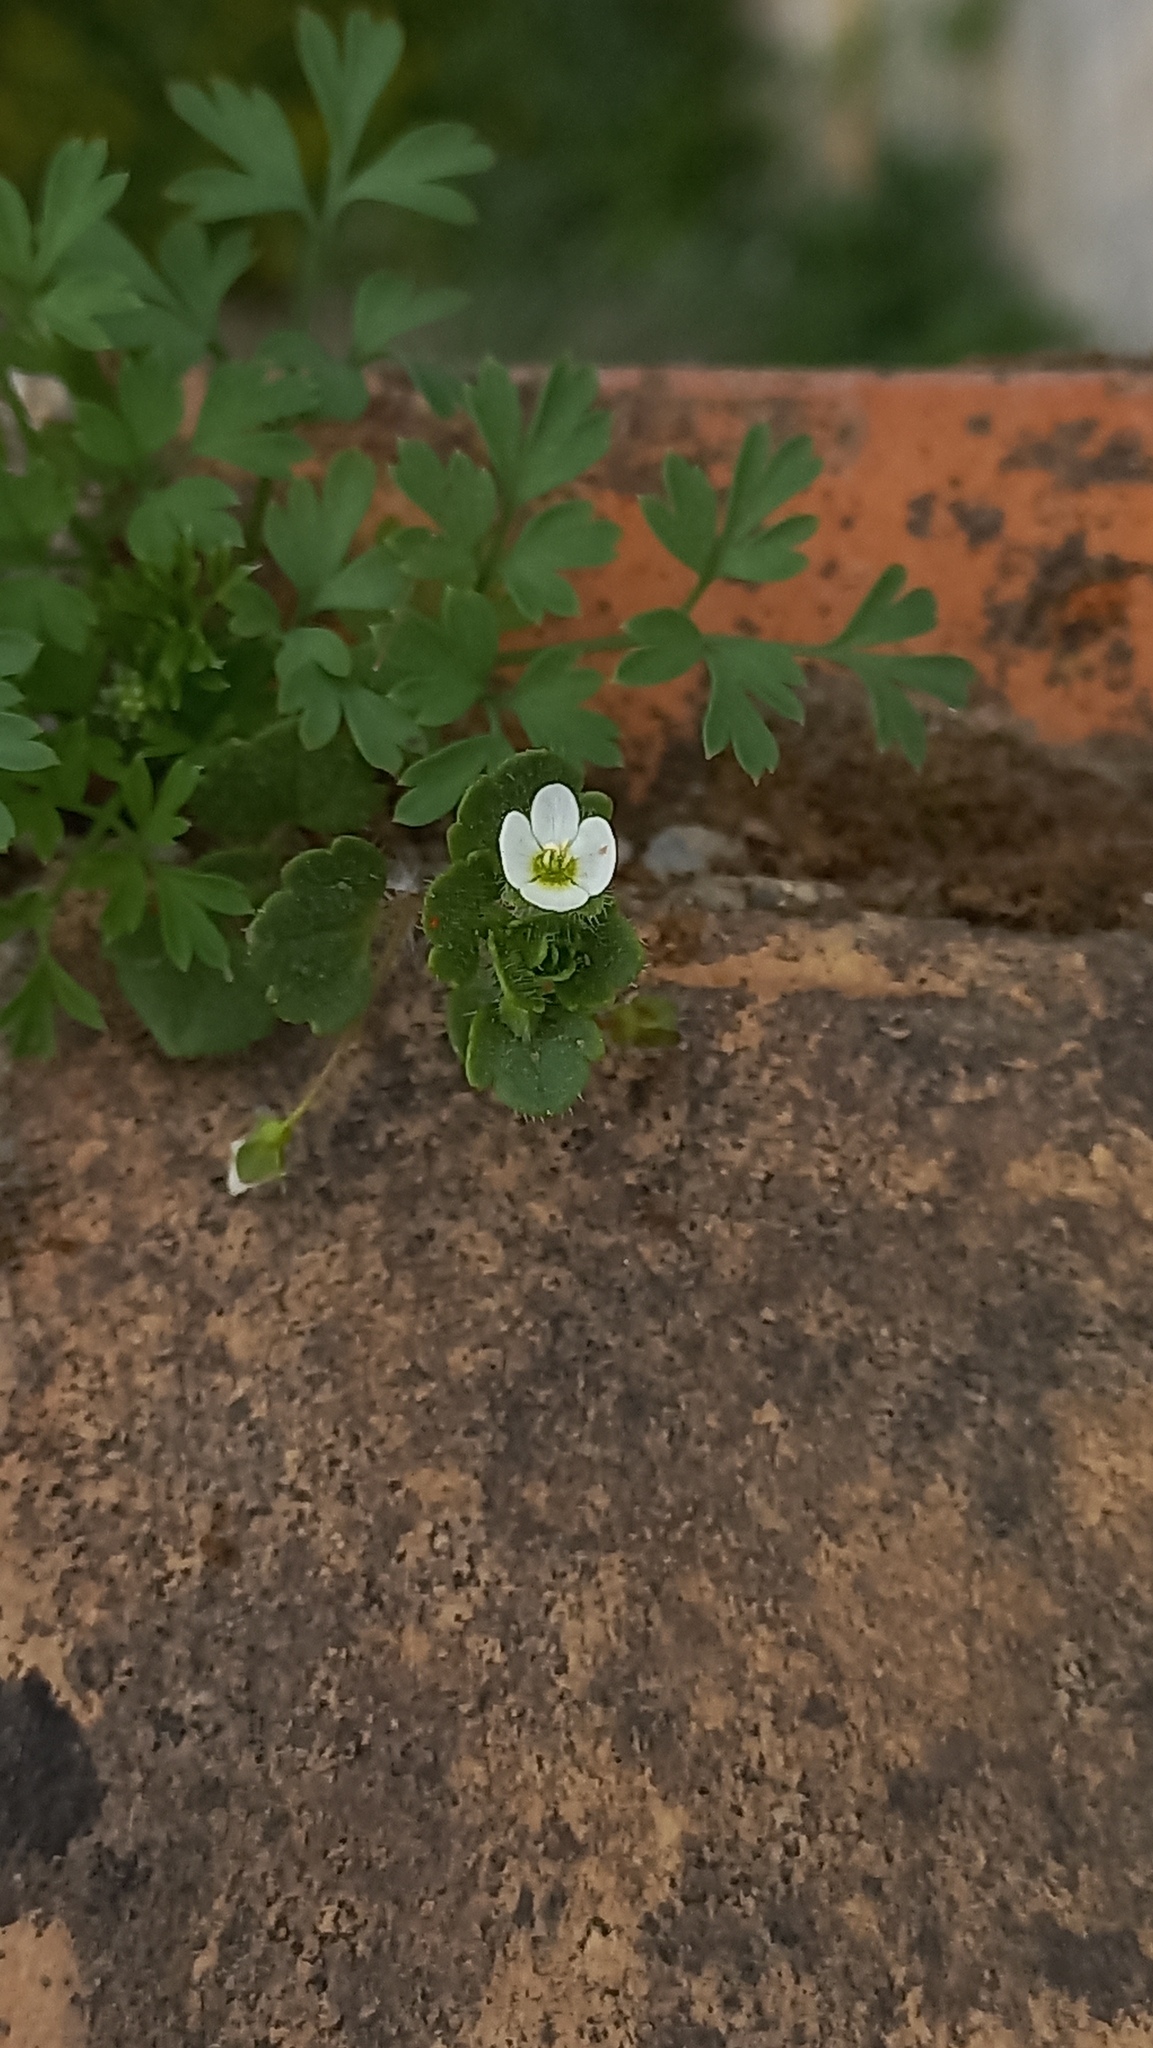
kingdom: Plantae
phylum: Tracheophyta
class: Magnoliopsida
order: Lamiales
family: Plantaginaceae
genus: Veronica
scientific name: Veronica cymbalaria
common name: Pale speedwell
